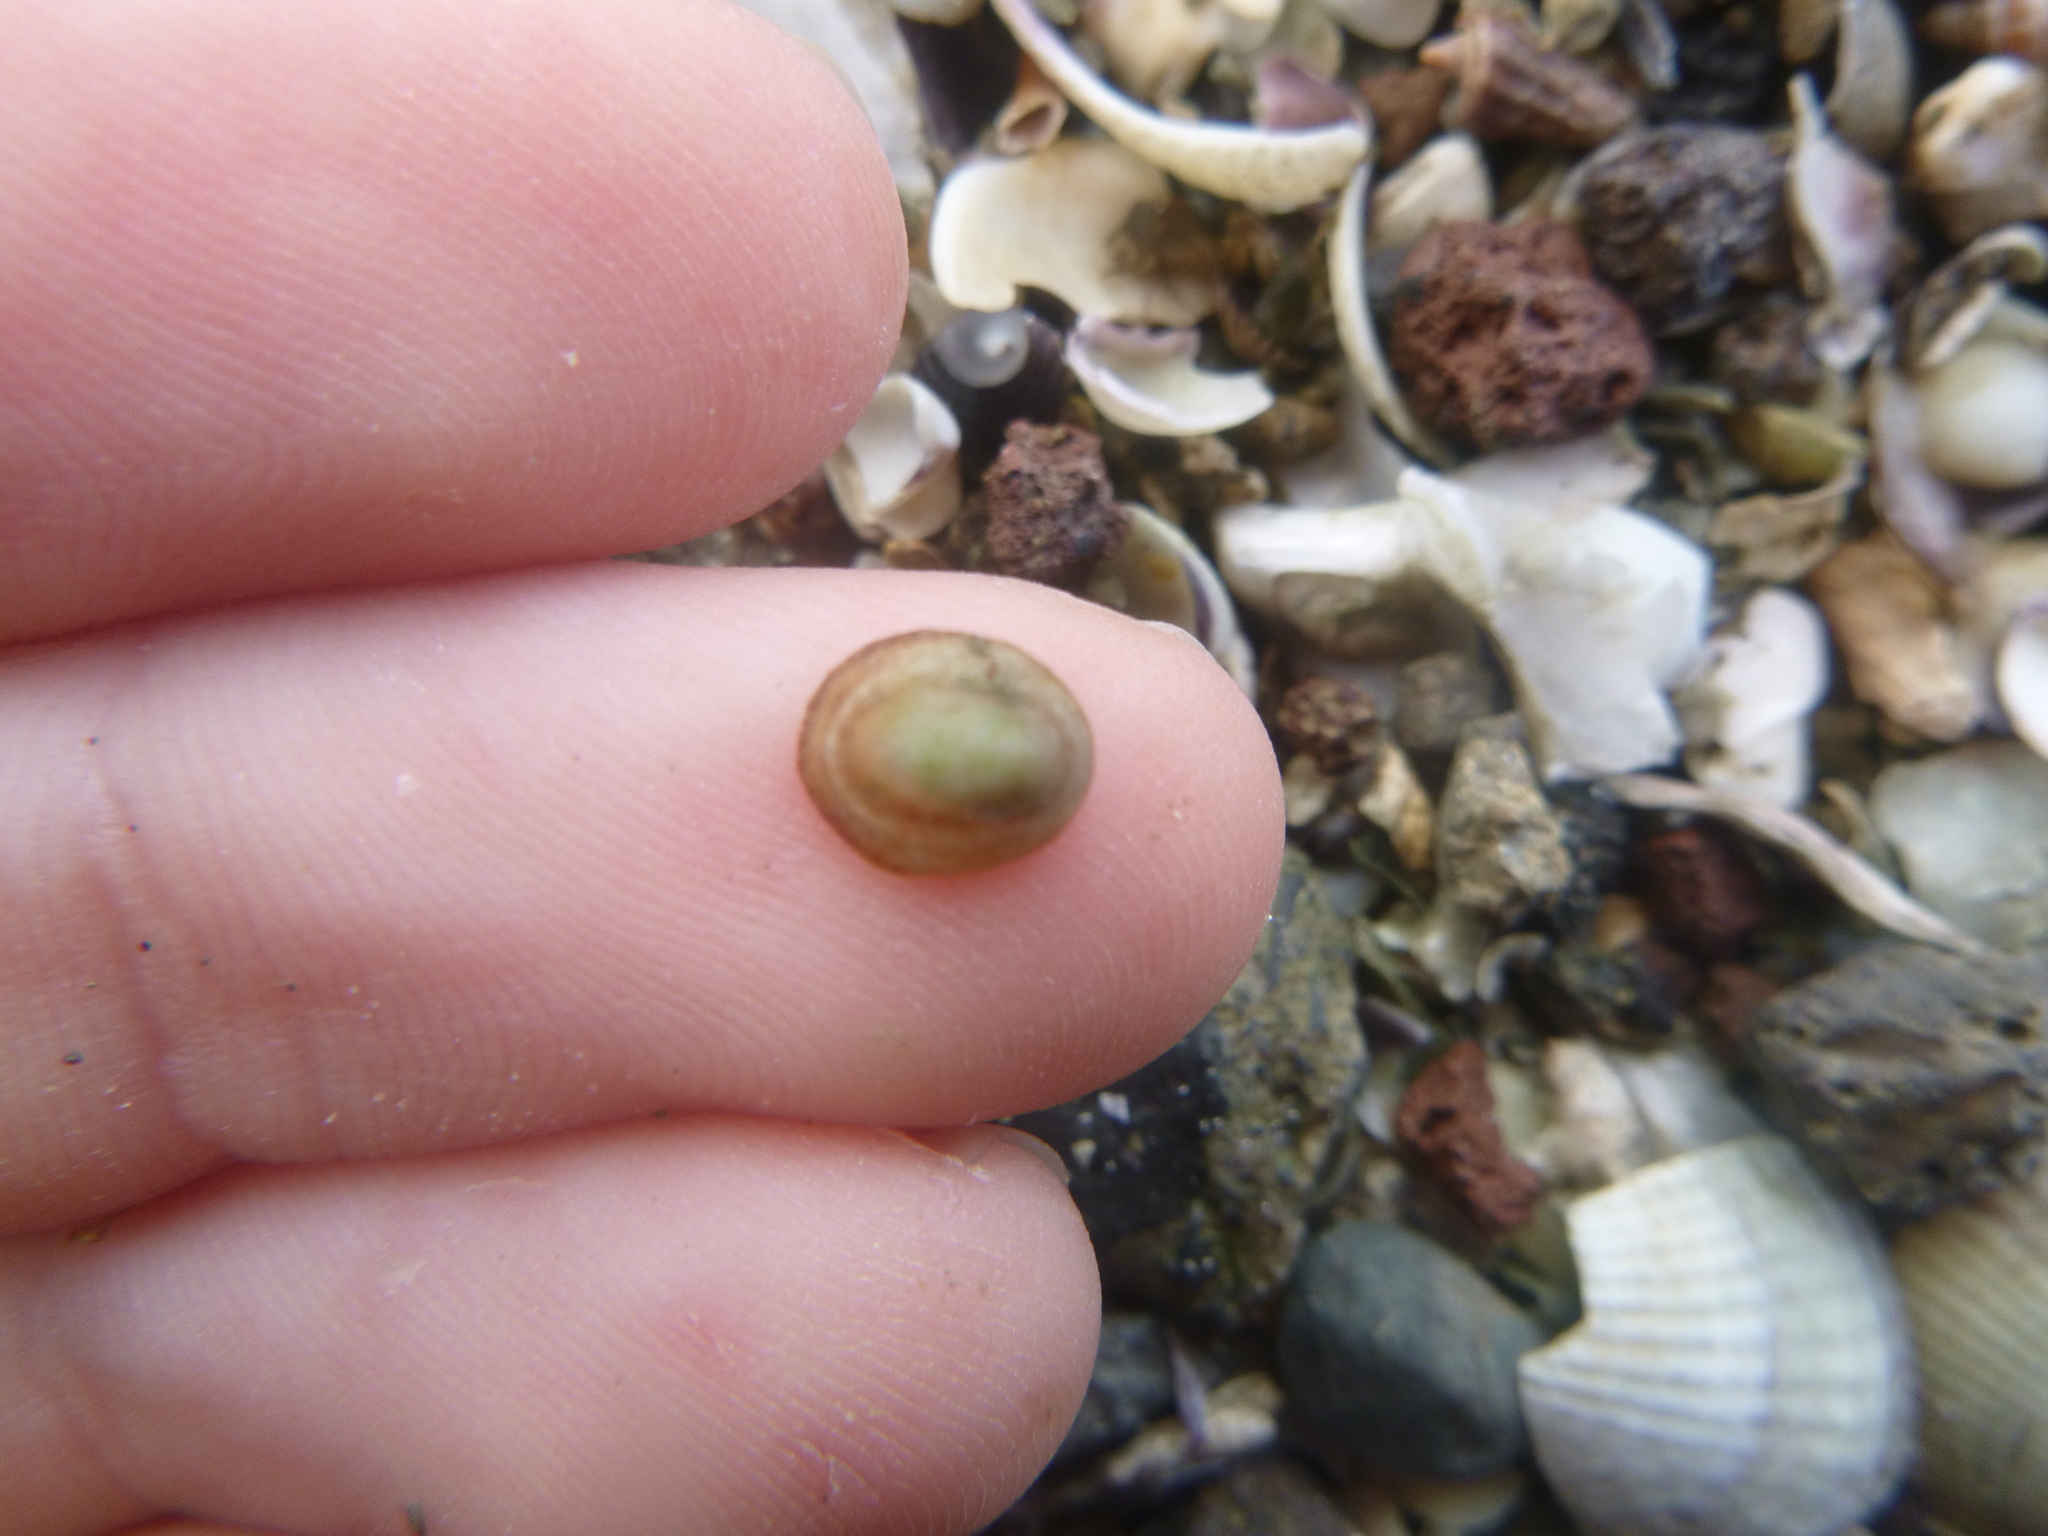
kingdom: Animalia
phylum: Mollusca
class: Gastropoda
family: Lottiidae
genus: Notoacmea
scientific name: Notoacmea potae
